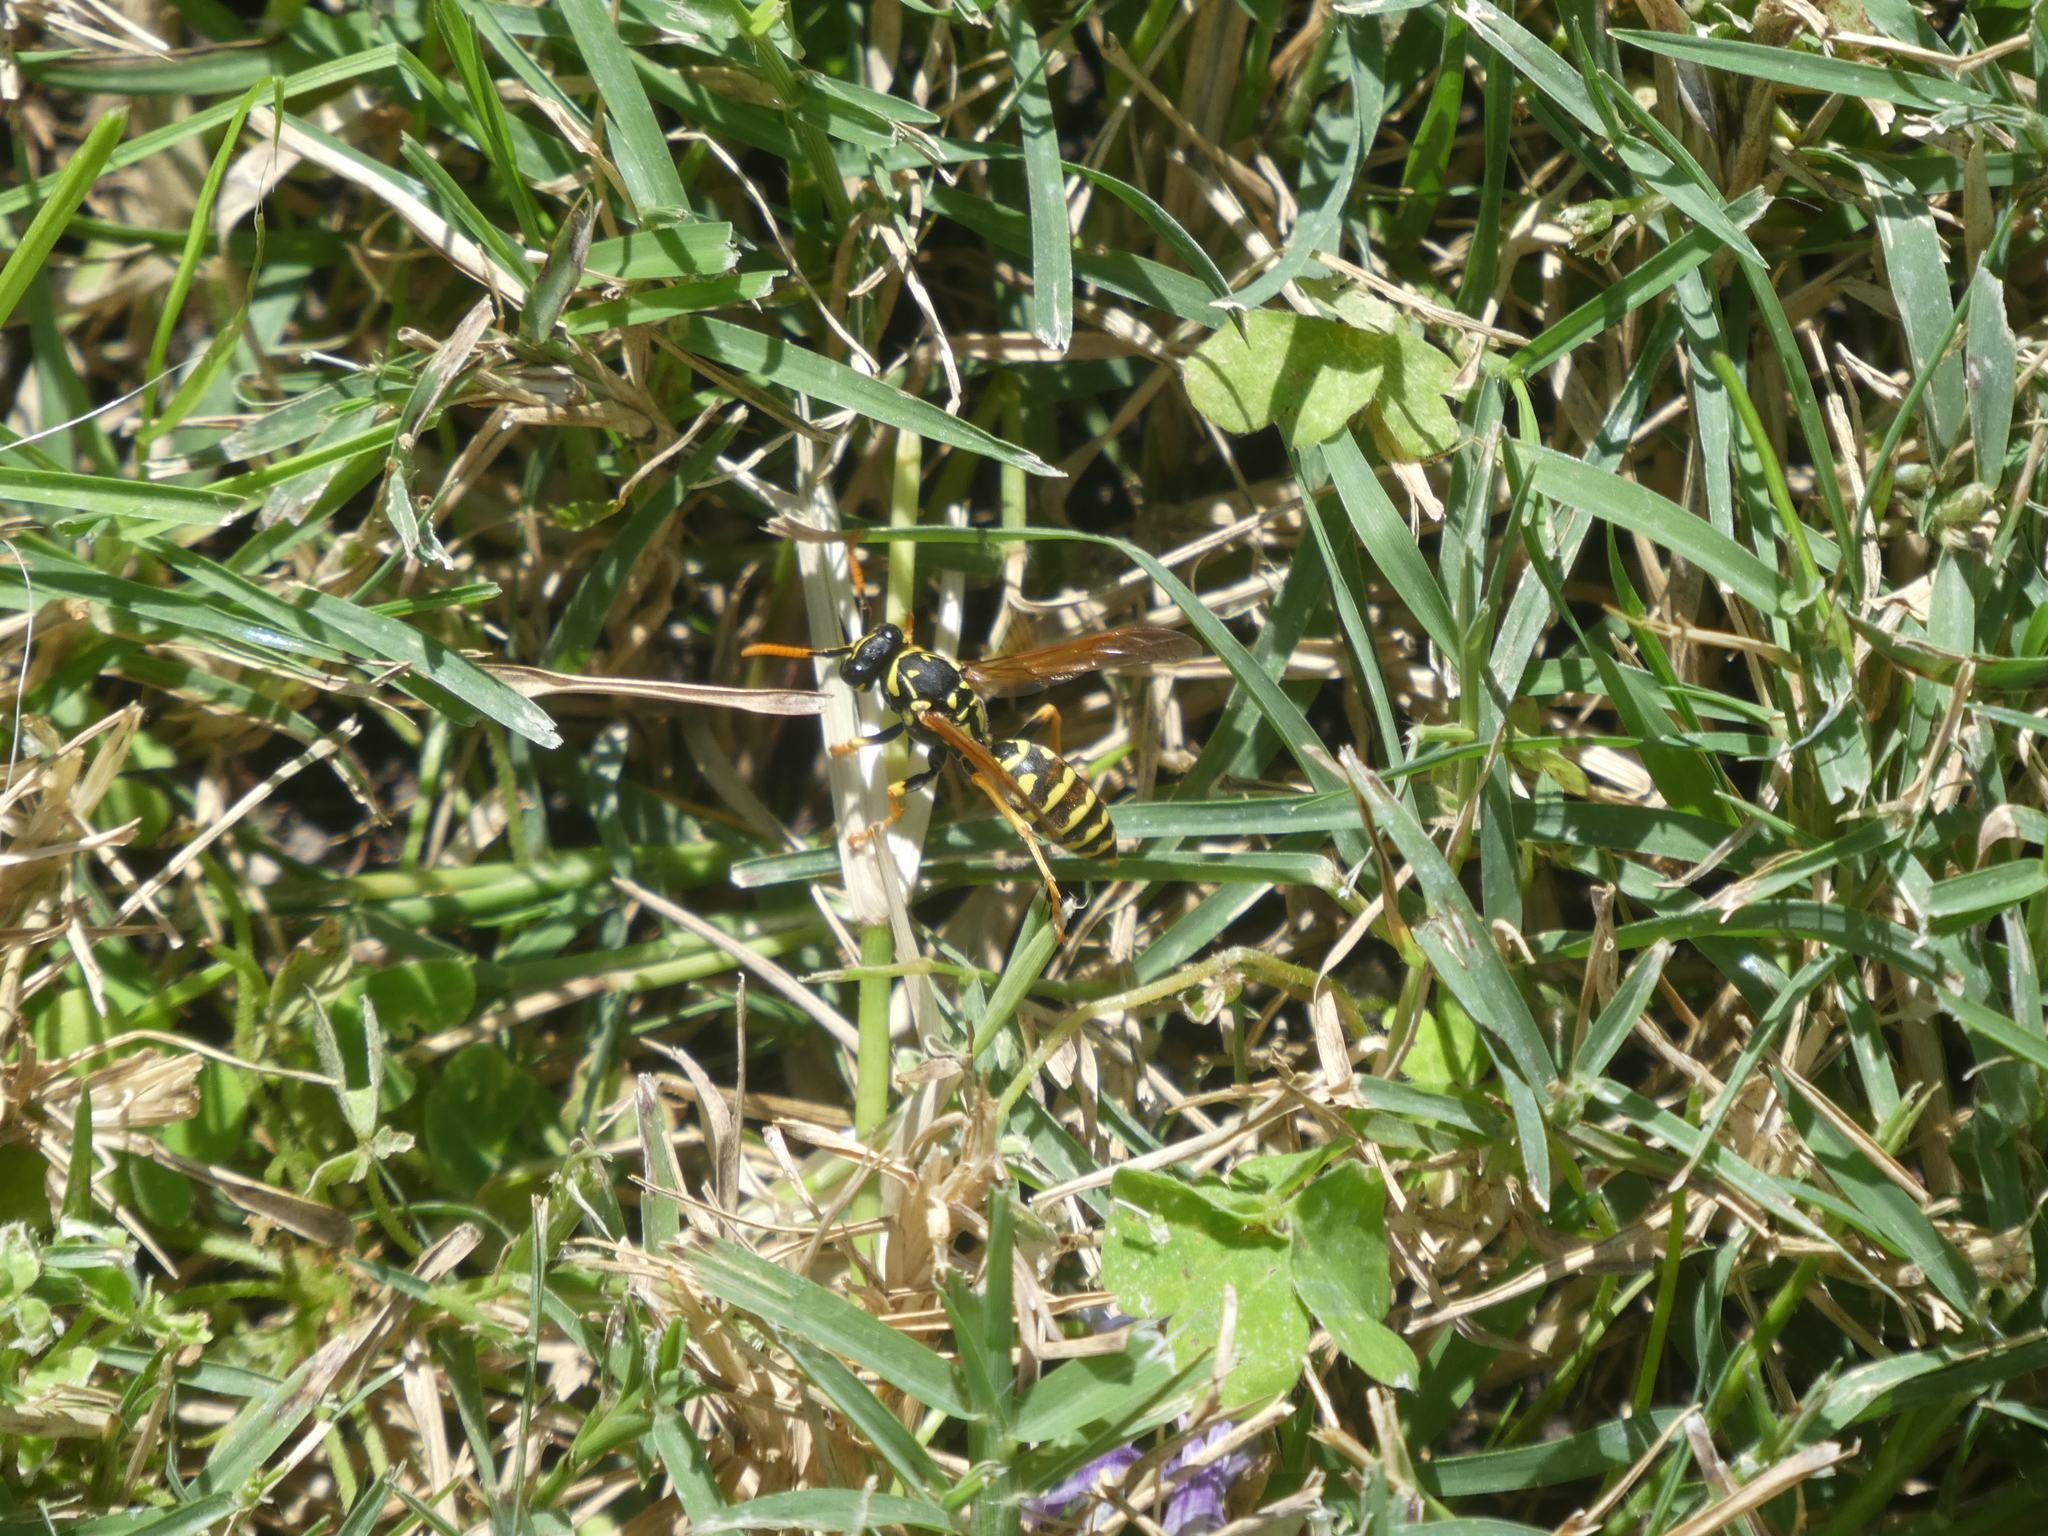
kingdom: Animalia
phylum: Arthropoda
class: Insecta
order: Hymenoptera
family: Eumenidae
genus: Polistes
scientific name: Polistes dominula
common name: Paper wasp
